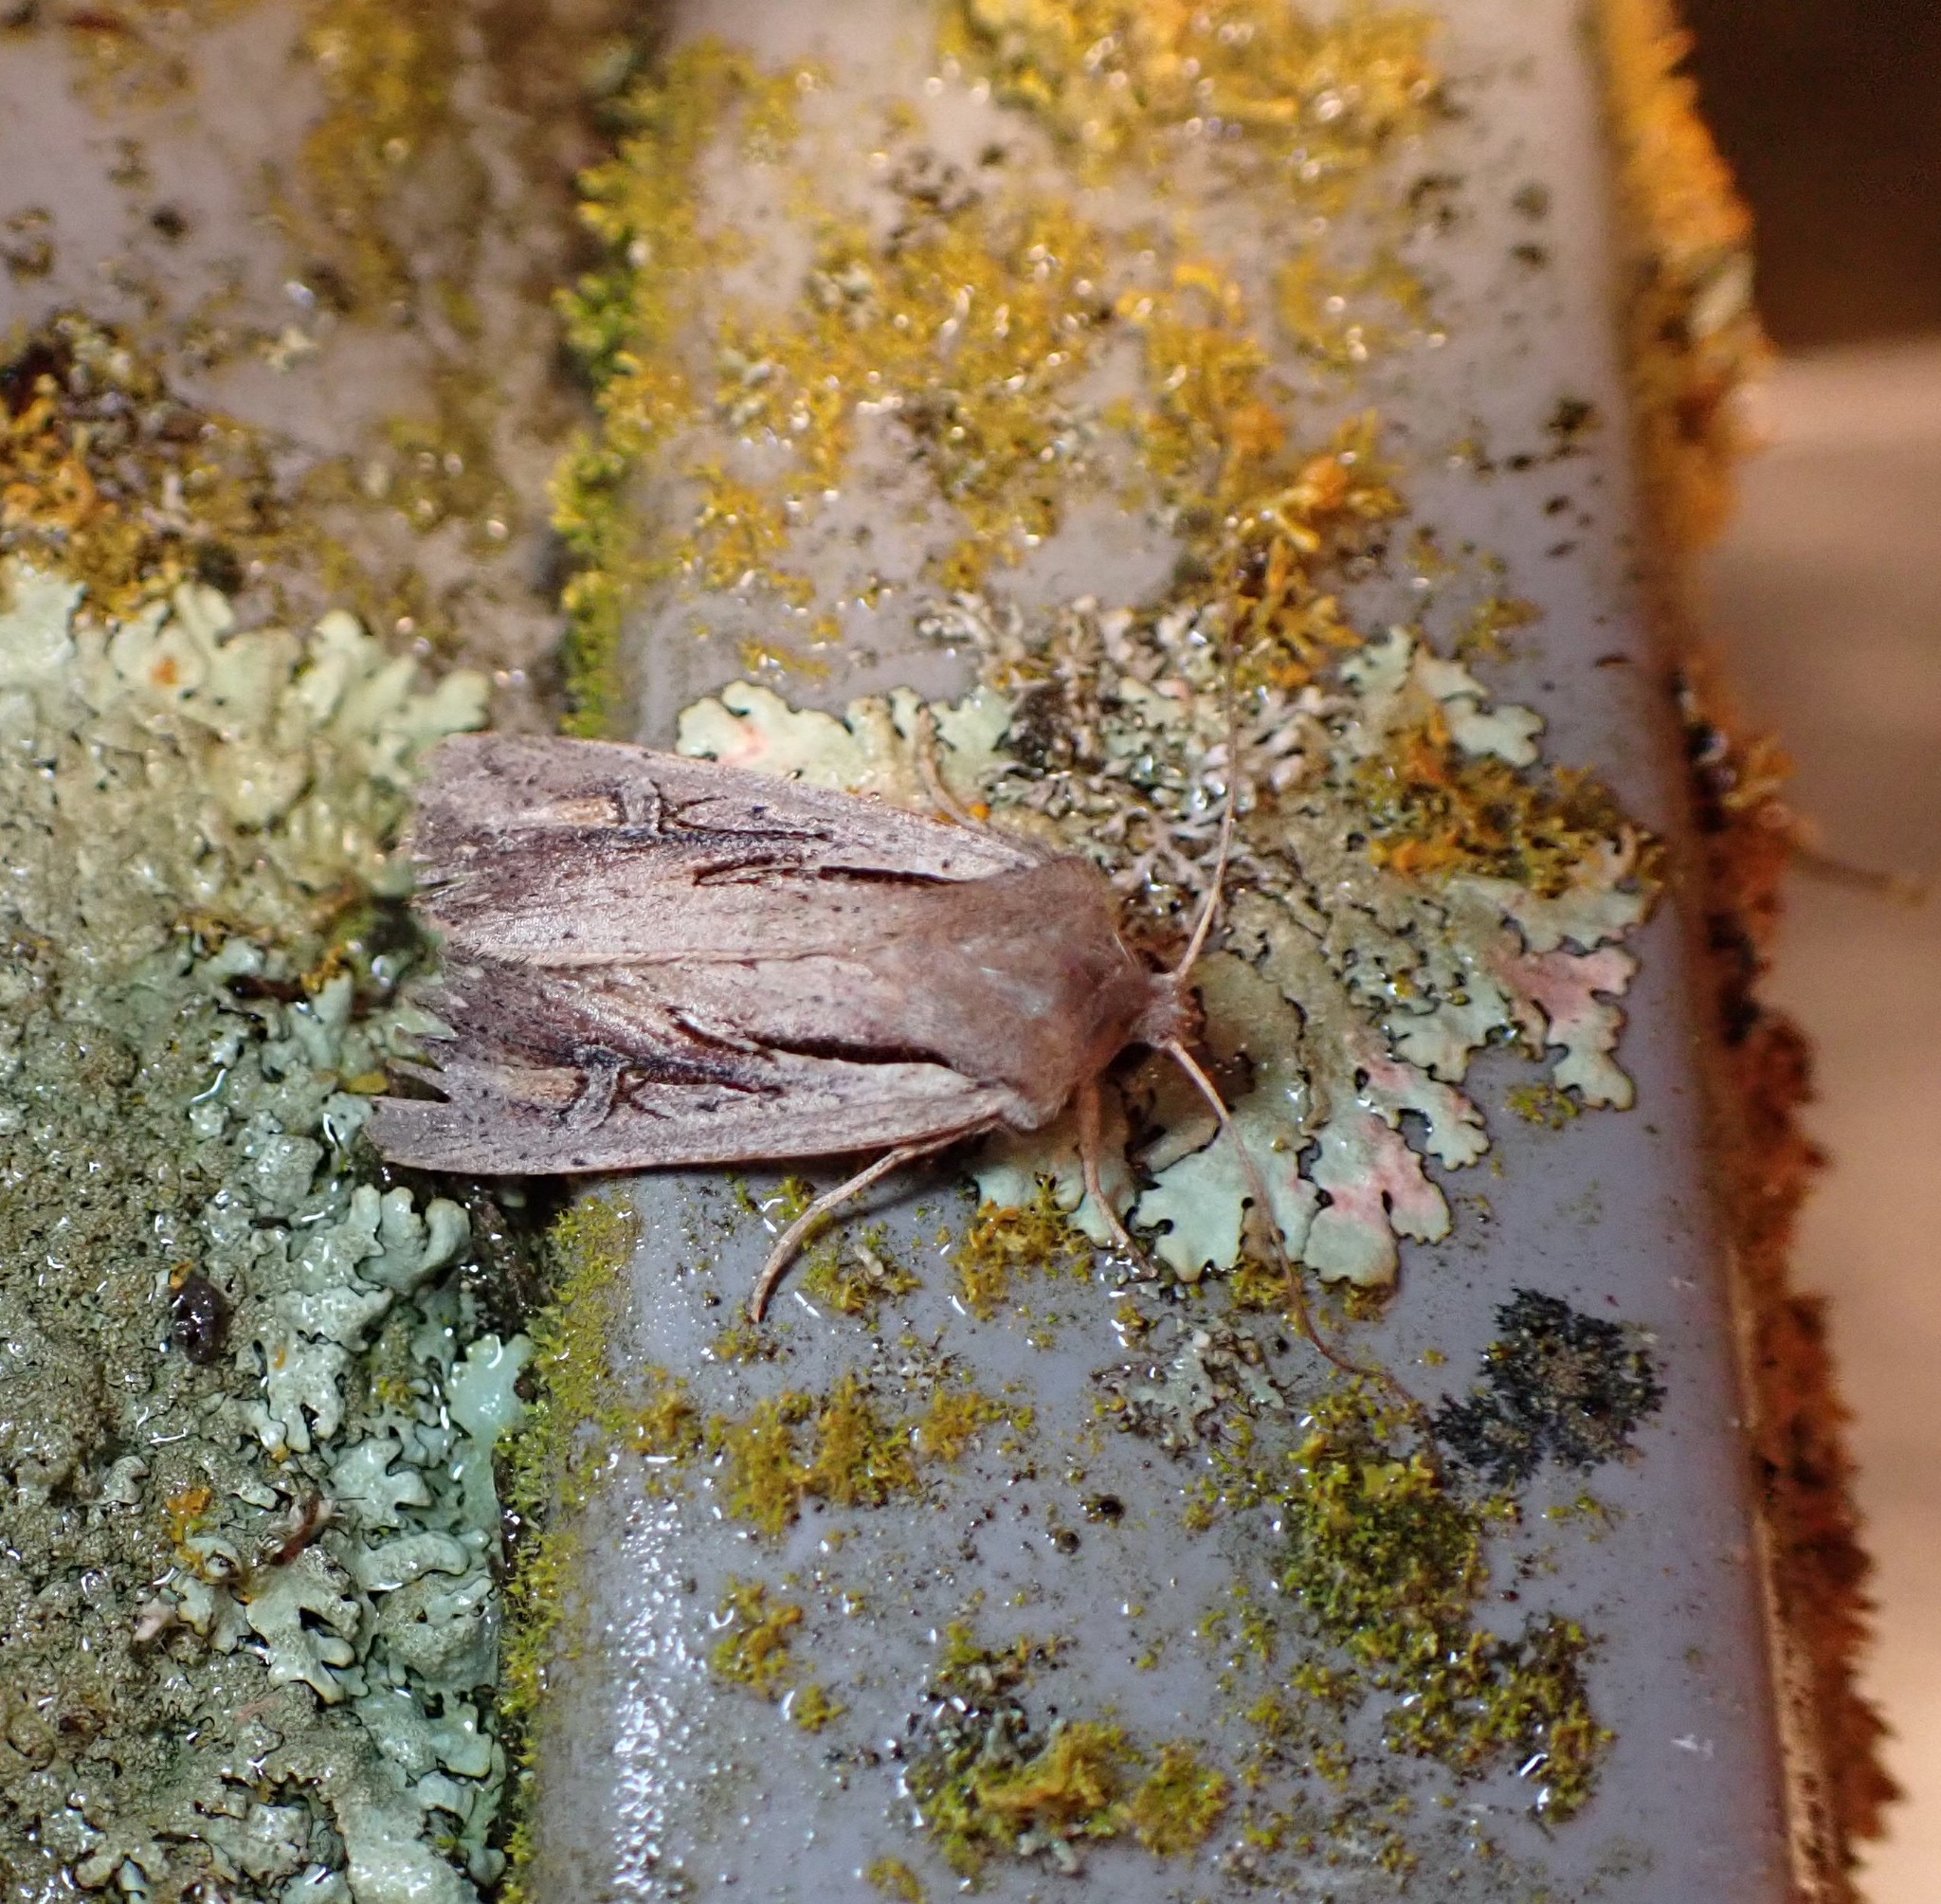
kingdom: Animalia
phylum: Arthropoda
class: Insecta
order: Lepidoptera
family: Noctuidae
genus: Ichneutica
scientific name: Ichneutica atristriga
